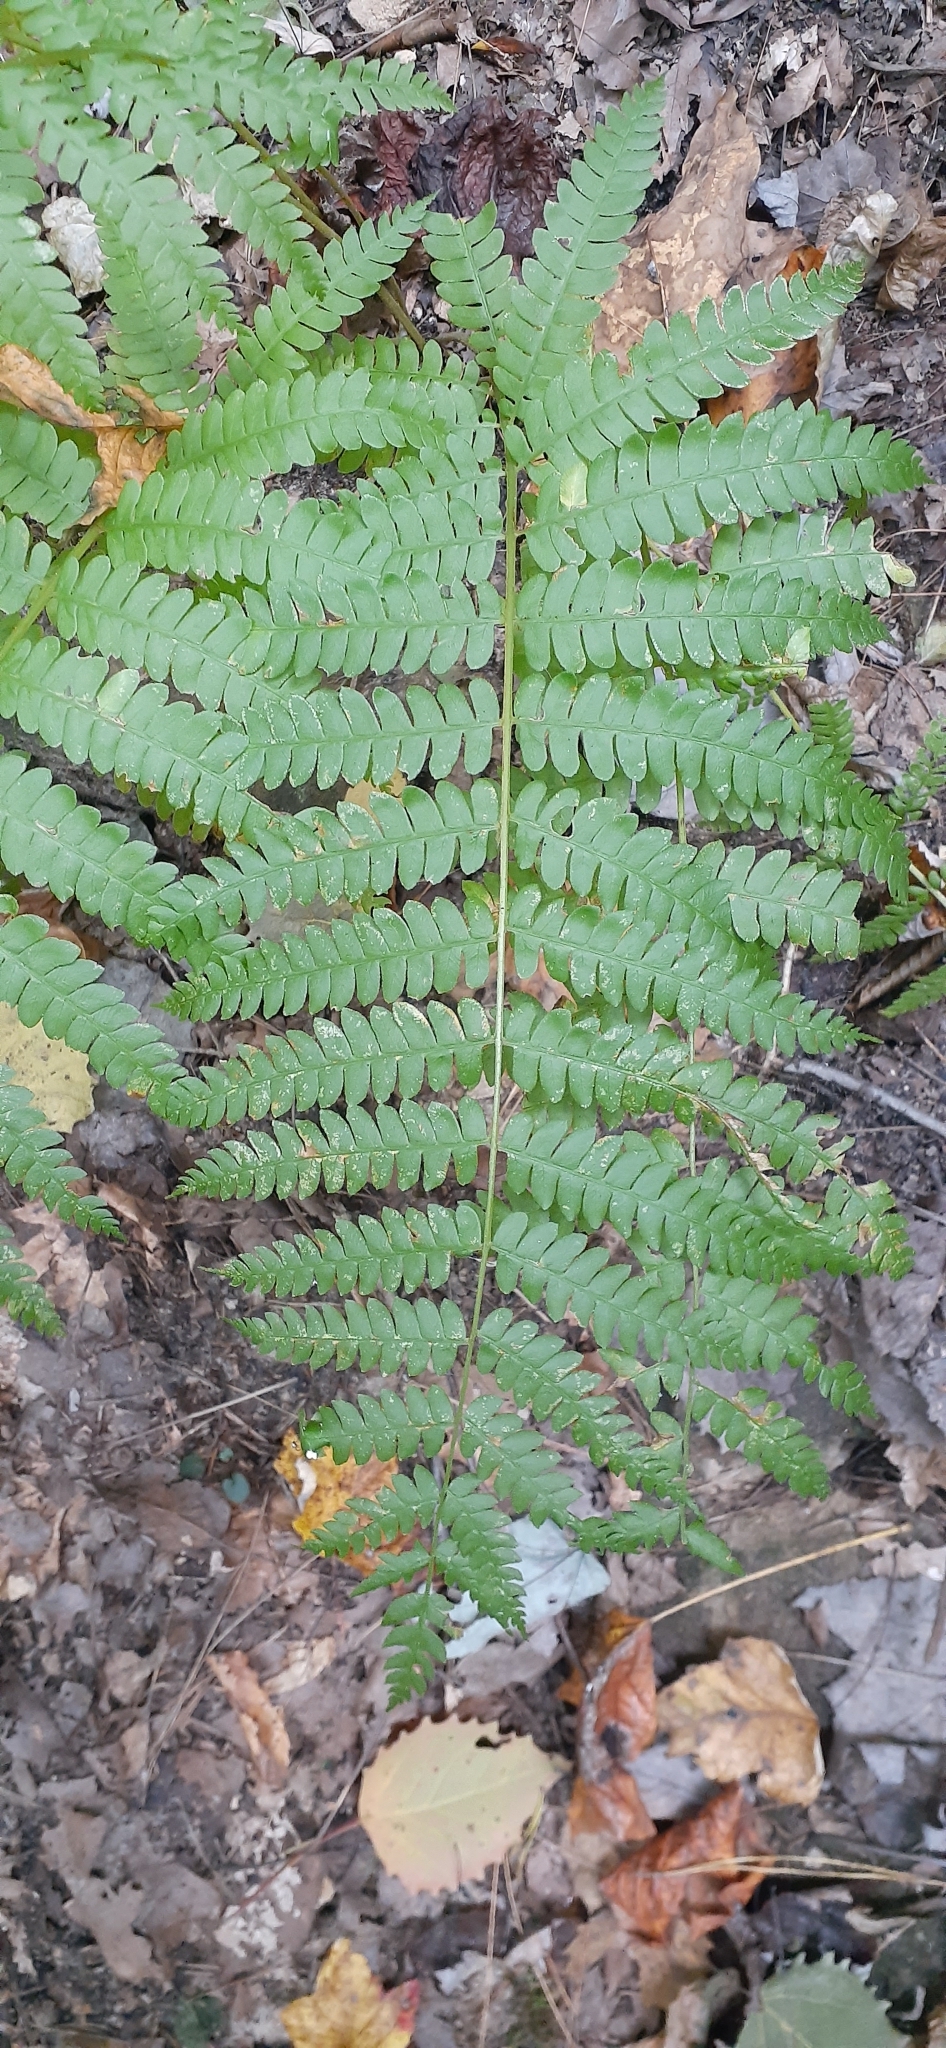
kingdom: Plantae
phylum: Tracheophyta
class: Polypodiopsida
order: Osmundales
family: Osmundaceae
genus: Osmundastrum
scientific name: Osmundastrum cinnamomeum
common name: Cinnamon fern
